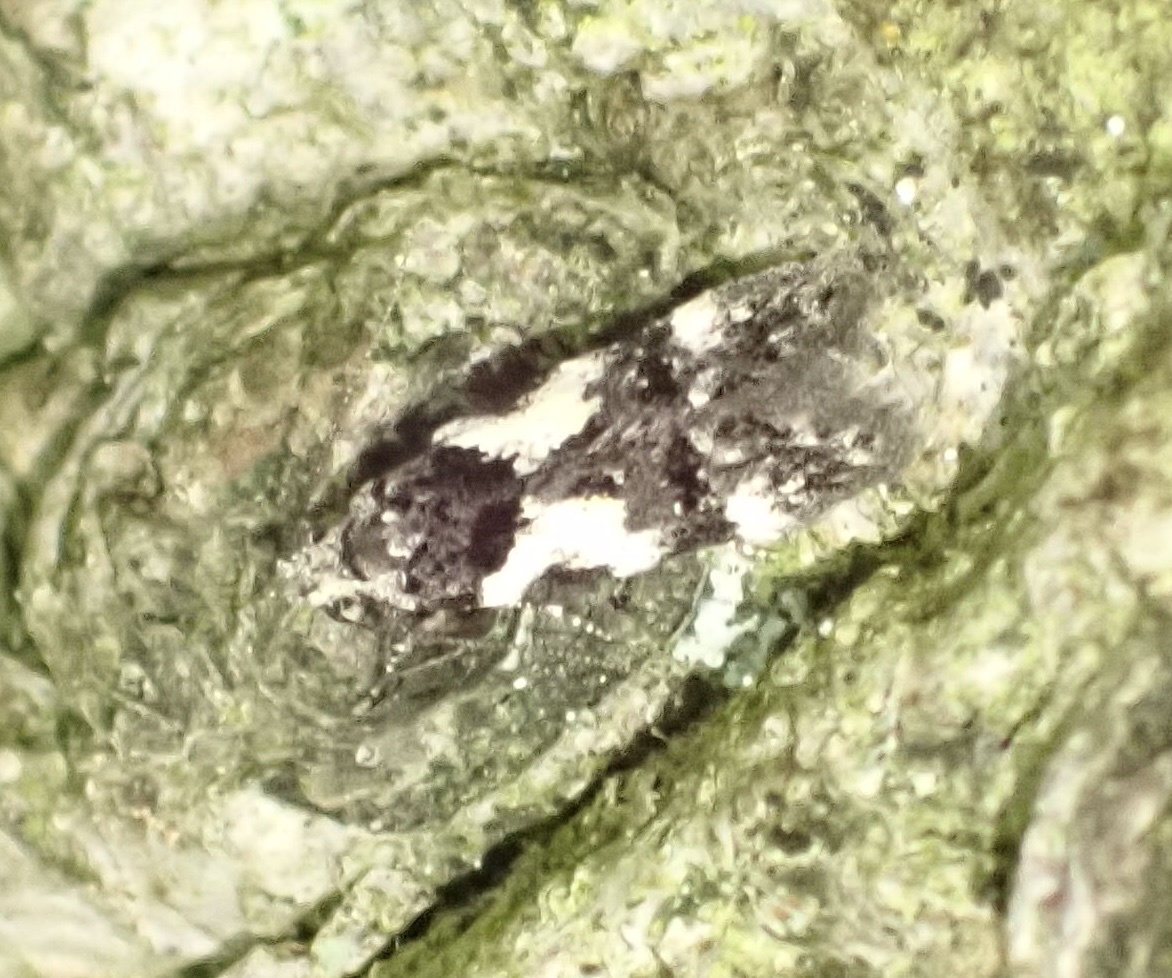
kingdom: Animalia
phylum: Arthropoda
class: Insecta
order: Lepidoptera
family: Gelechiidae
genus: Teleiodes
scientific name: Teleiodes luculella
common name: Crescent groundling
